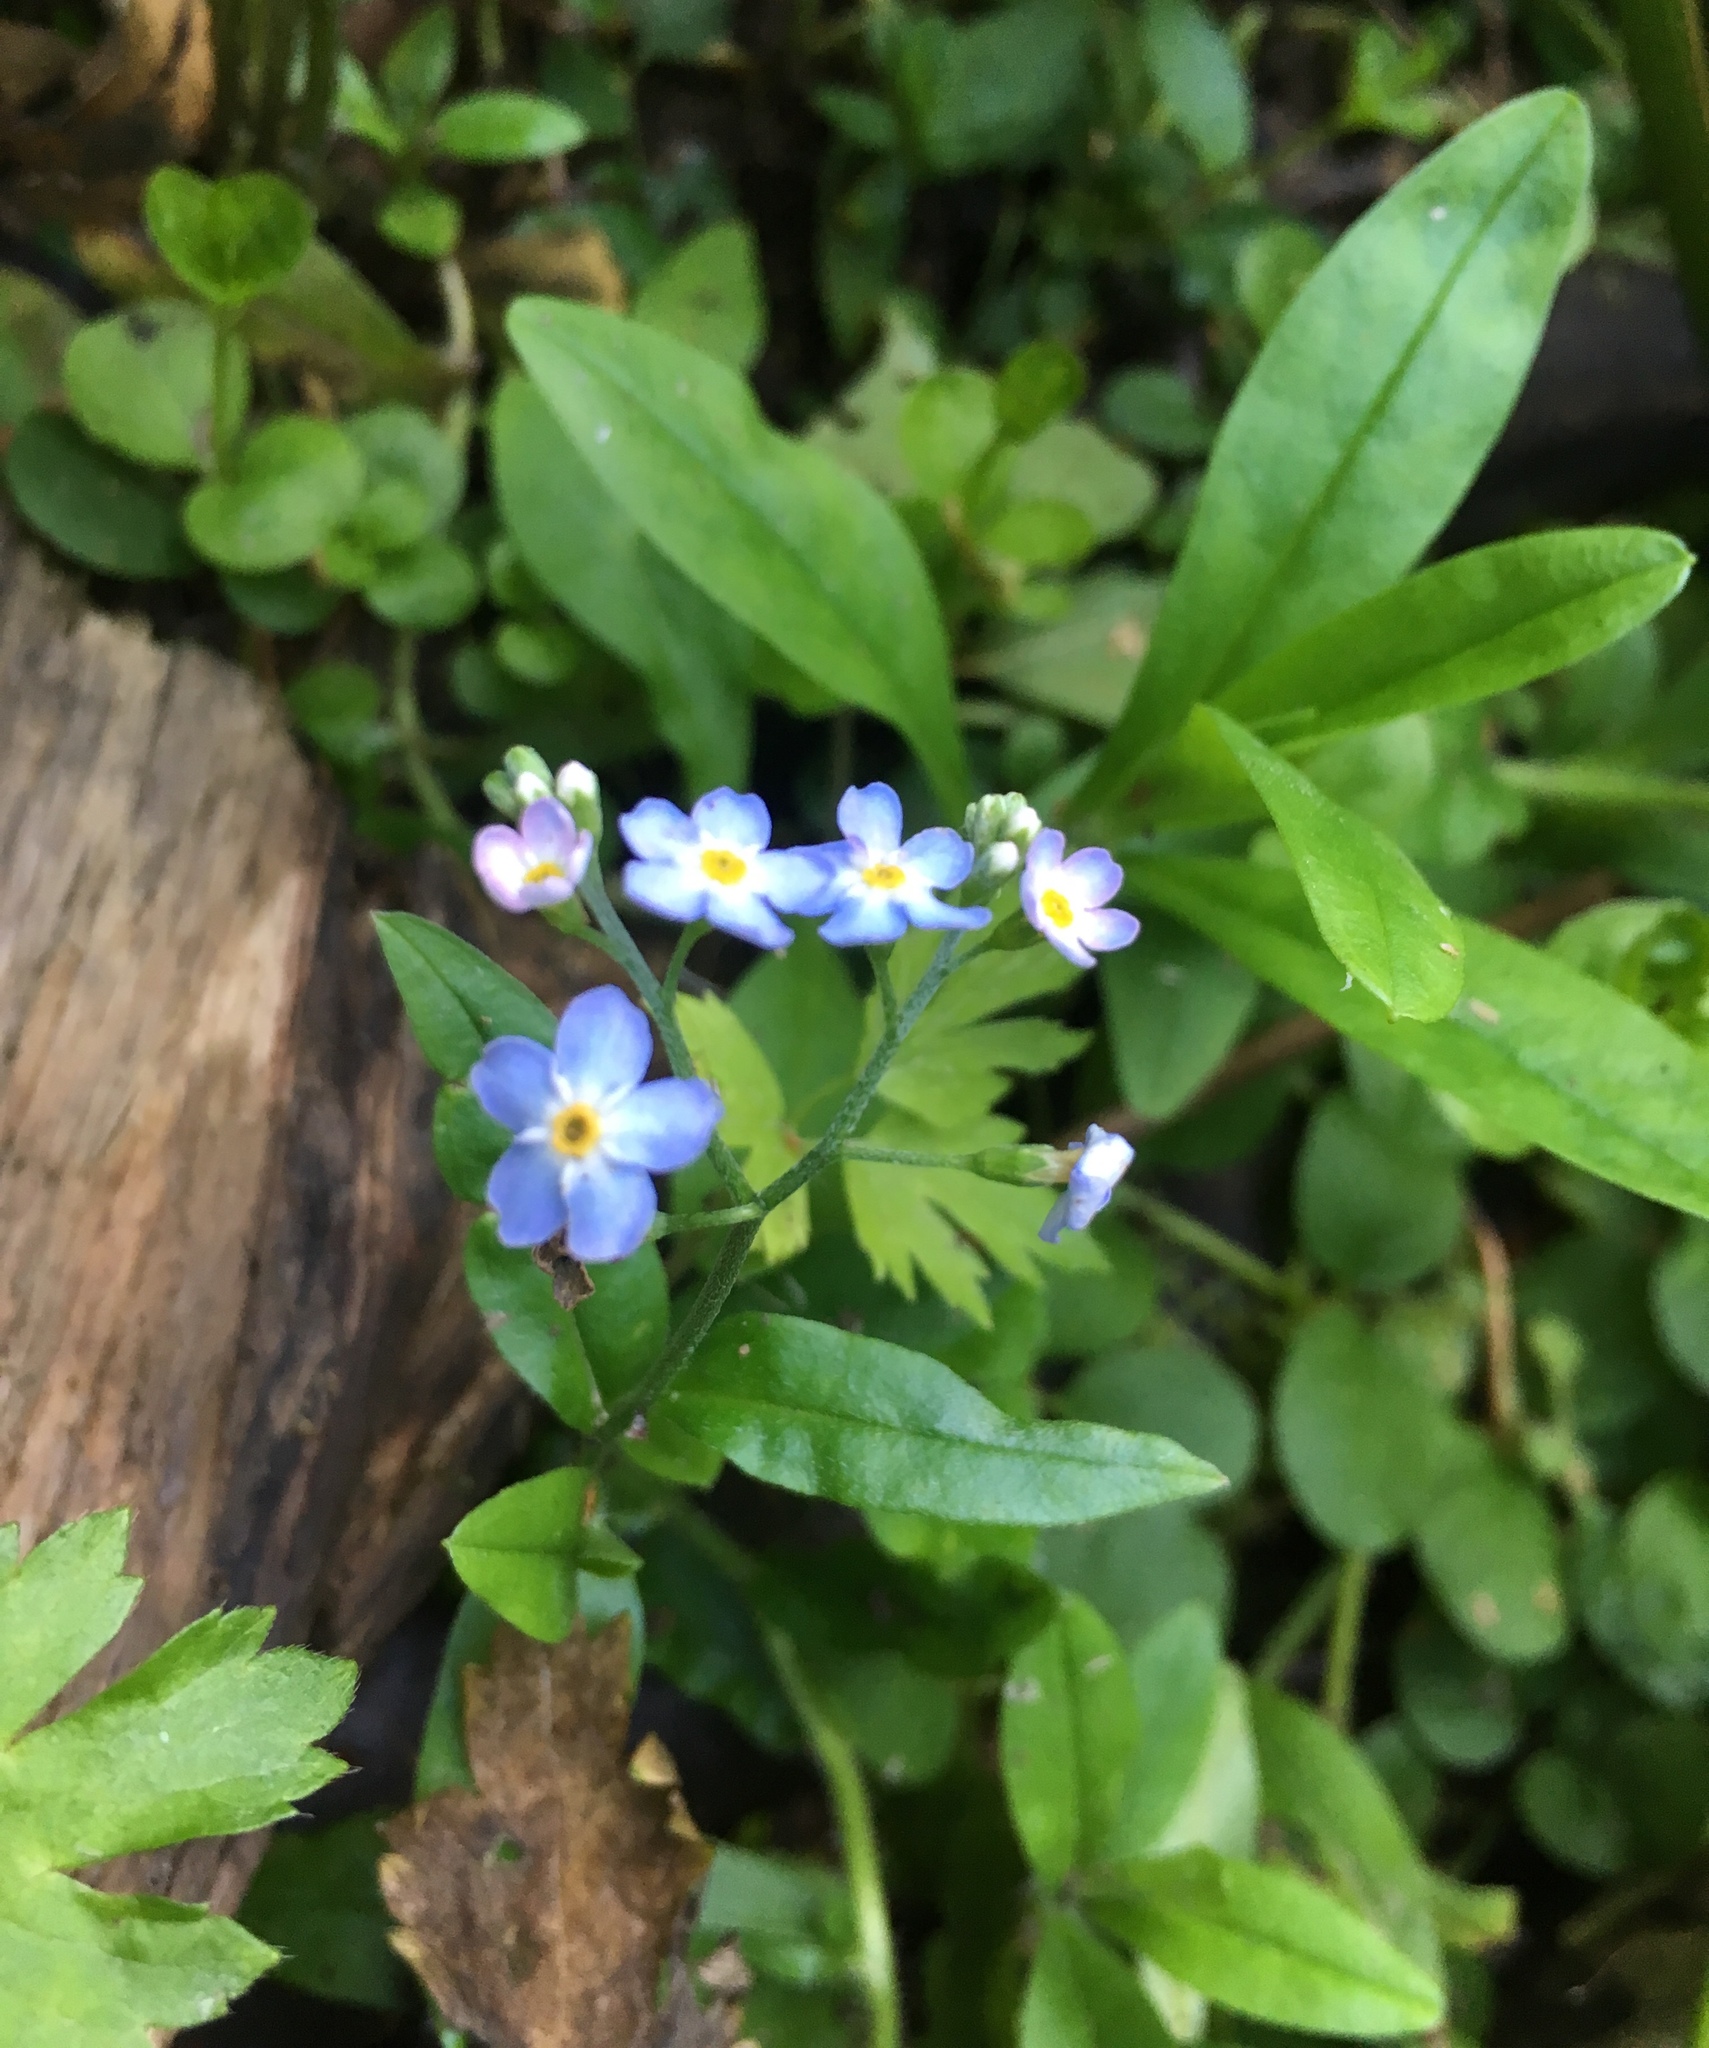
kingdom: Plantae
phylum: Tracheophyta
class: Magnoliopsida
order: Boraginales
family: Boraginaceae
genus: Myosotis
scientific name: Myosotis scorpioides
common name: Water forget-me-not
